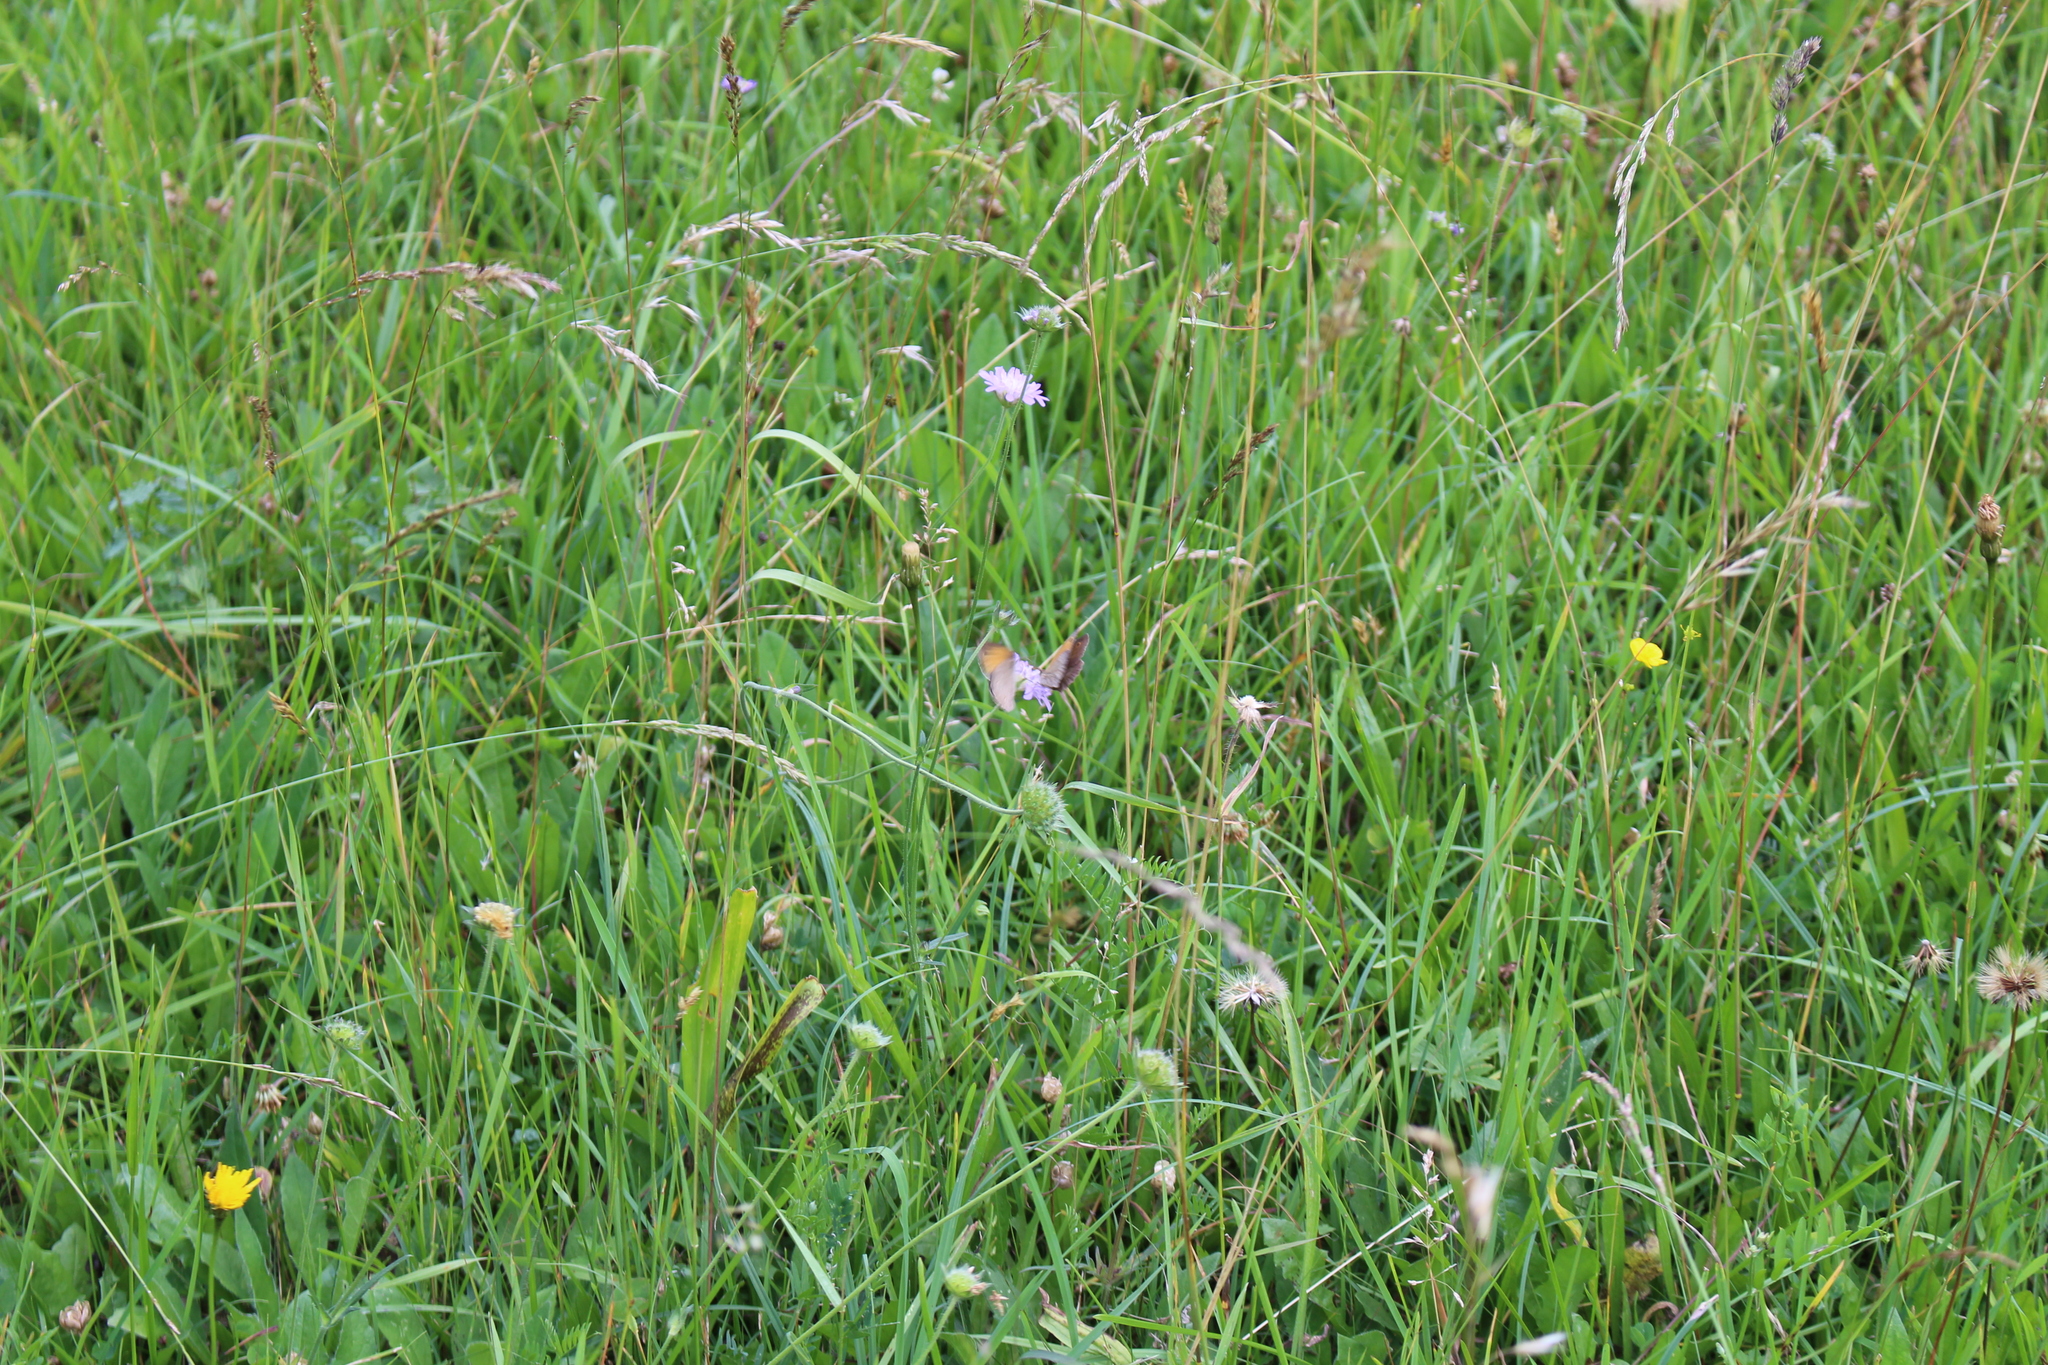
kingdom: Animalia
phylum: Arthropoda
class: Insecta
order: Lepidoptera
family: Nymphalidae
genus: Maniola
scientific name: Maniola jurtina
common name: Meadow brown
